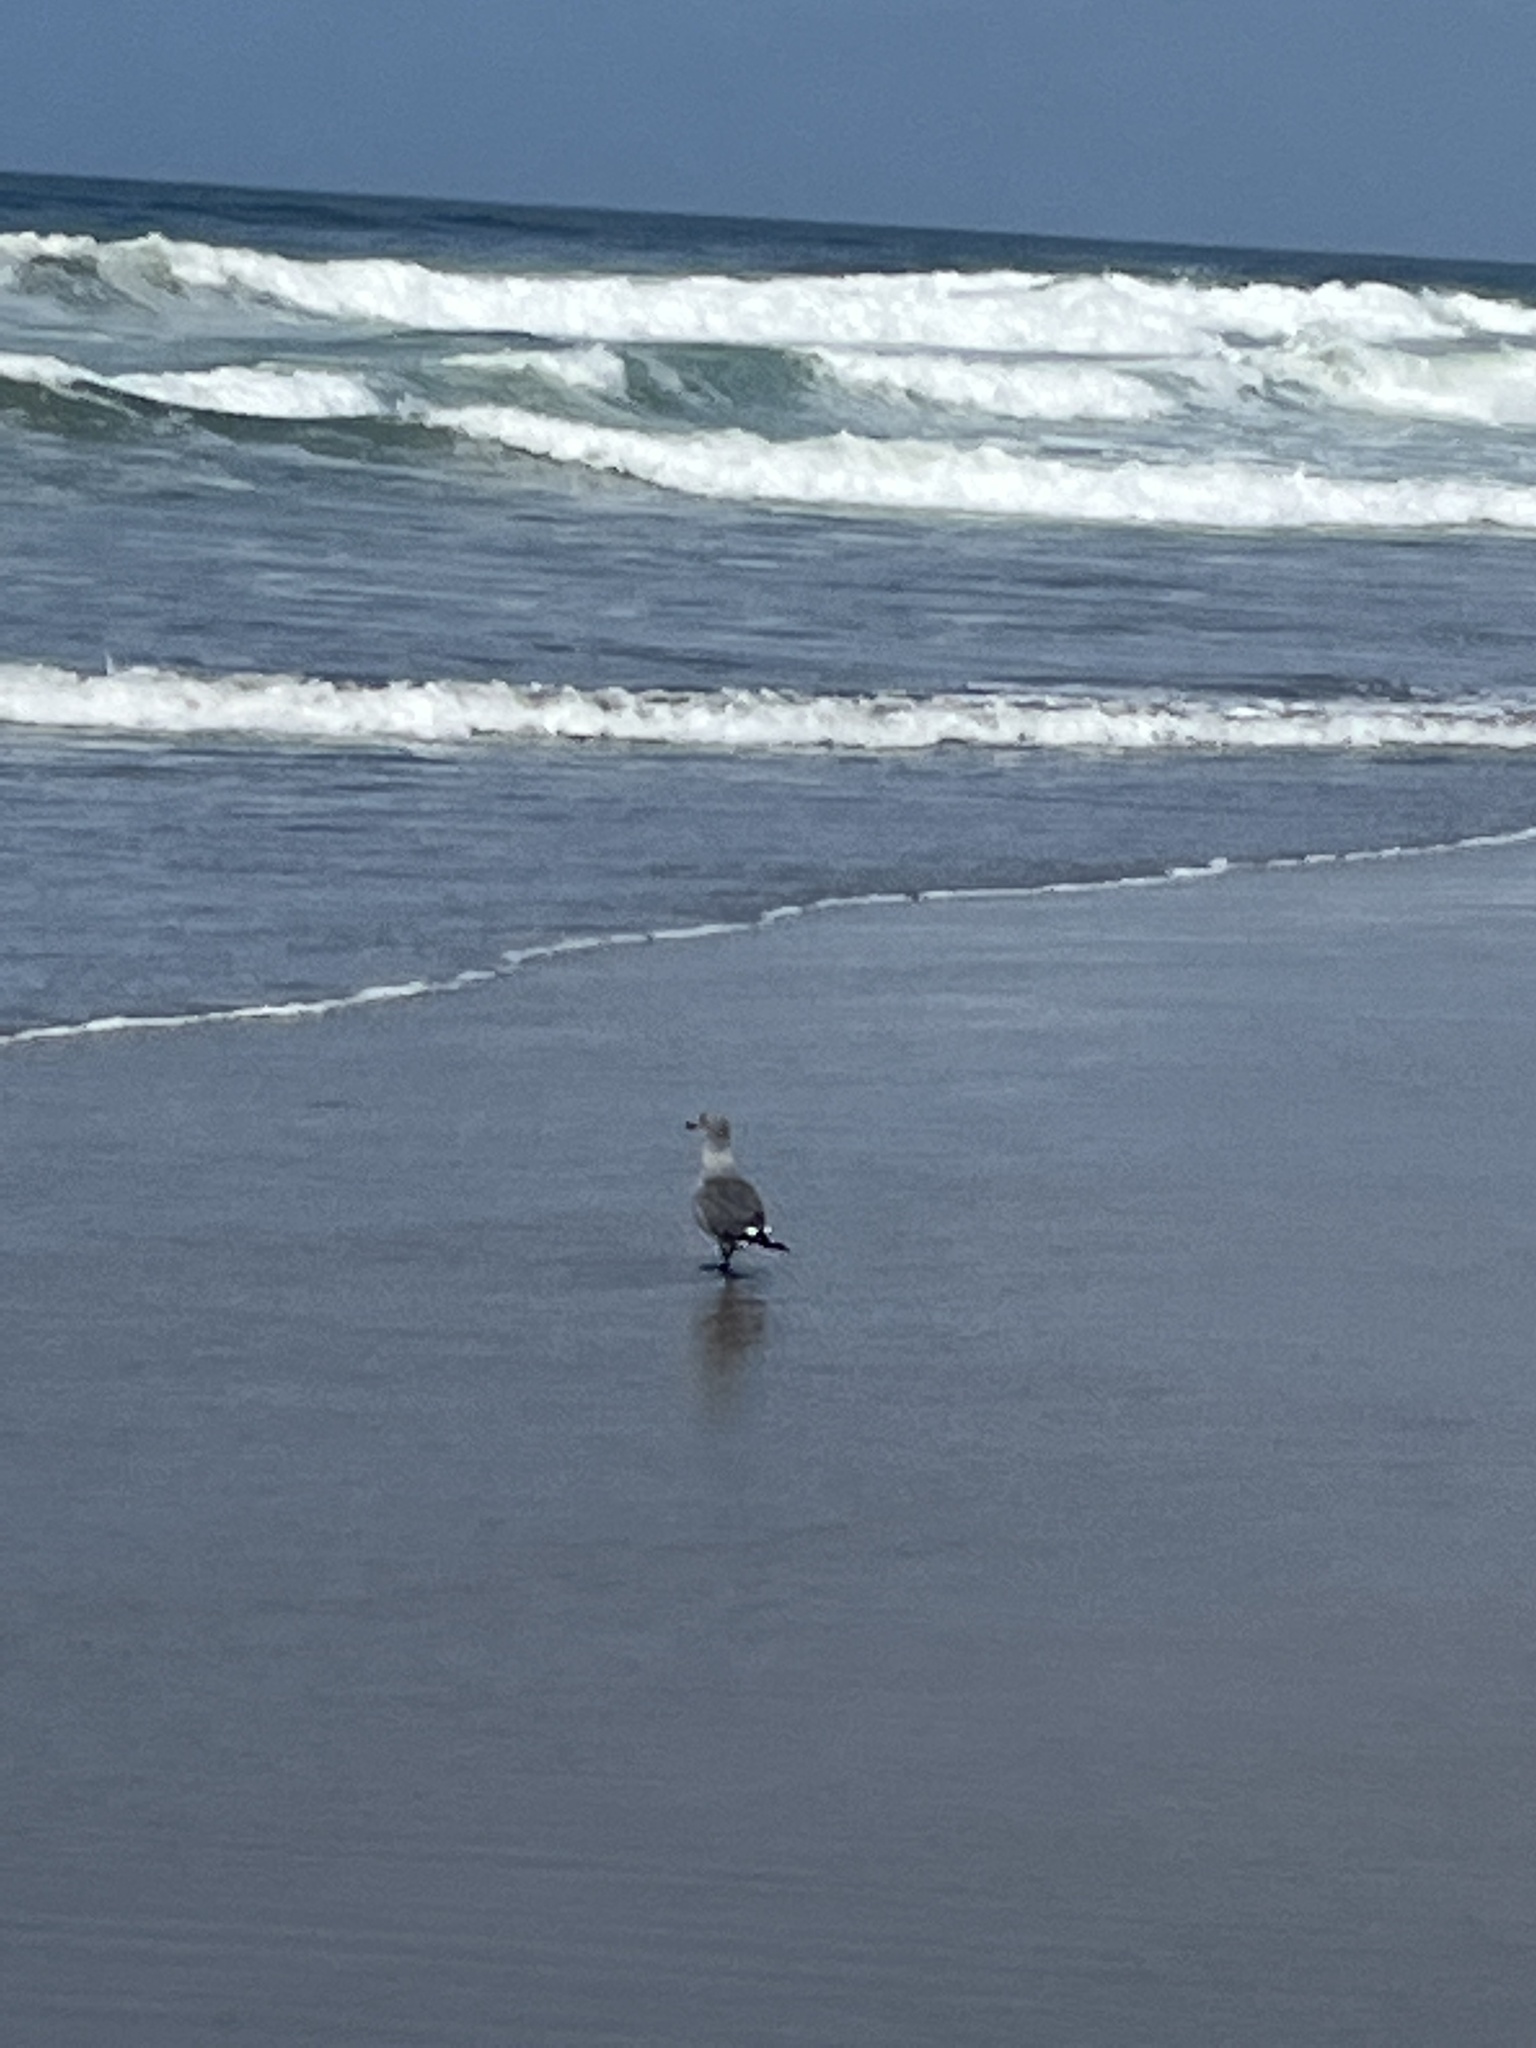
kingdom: Animalia
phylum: Chordata
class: Aves
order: Charadriiformes
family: Laridae
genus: Larus
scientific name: Larus heermanni
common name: Heermann's gull
